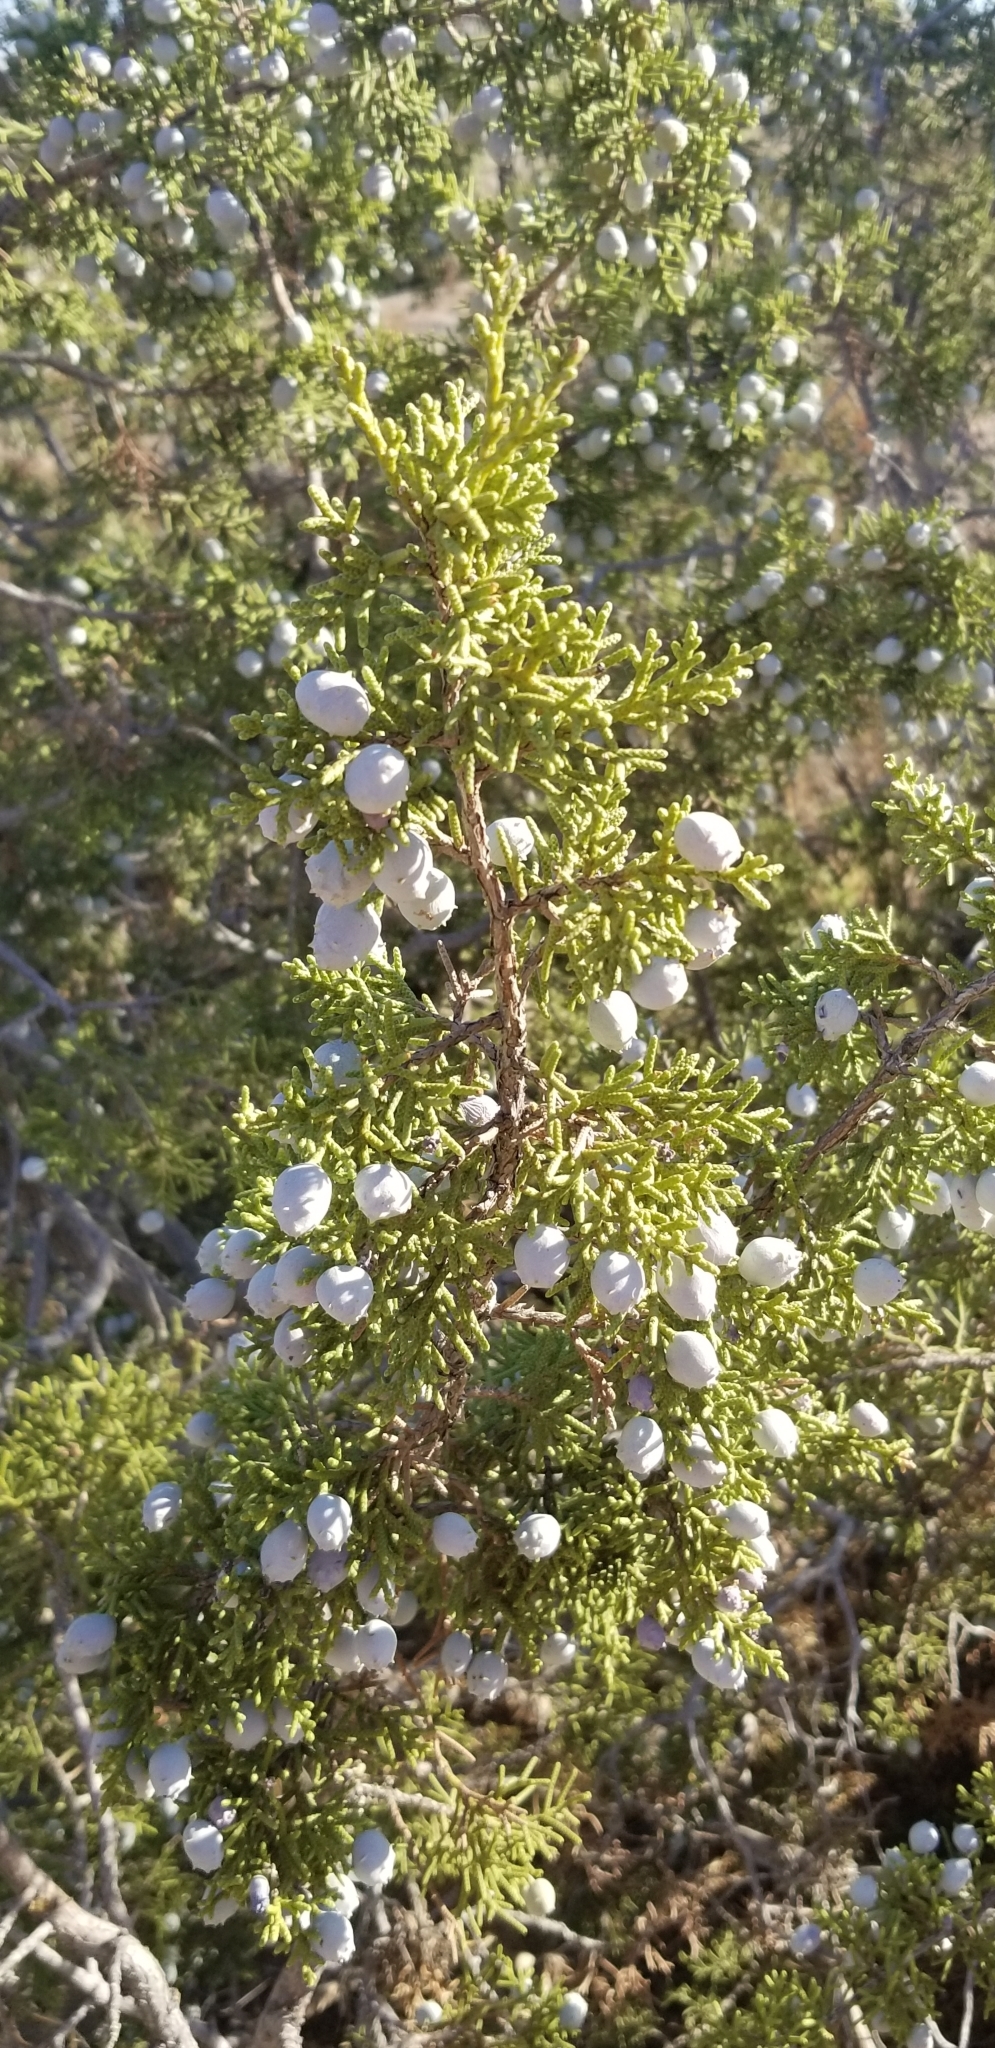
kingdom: Plantae
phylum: Tracheophyta
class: Pinopsida
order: Pinales
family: Cupressaceae
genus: Juniperus
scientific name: Juniperus californica
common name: California juniper
